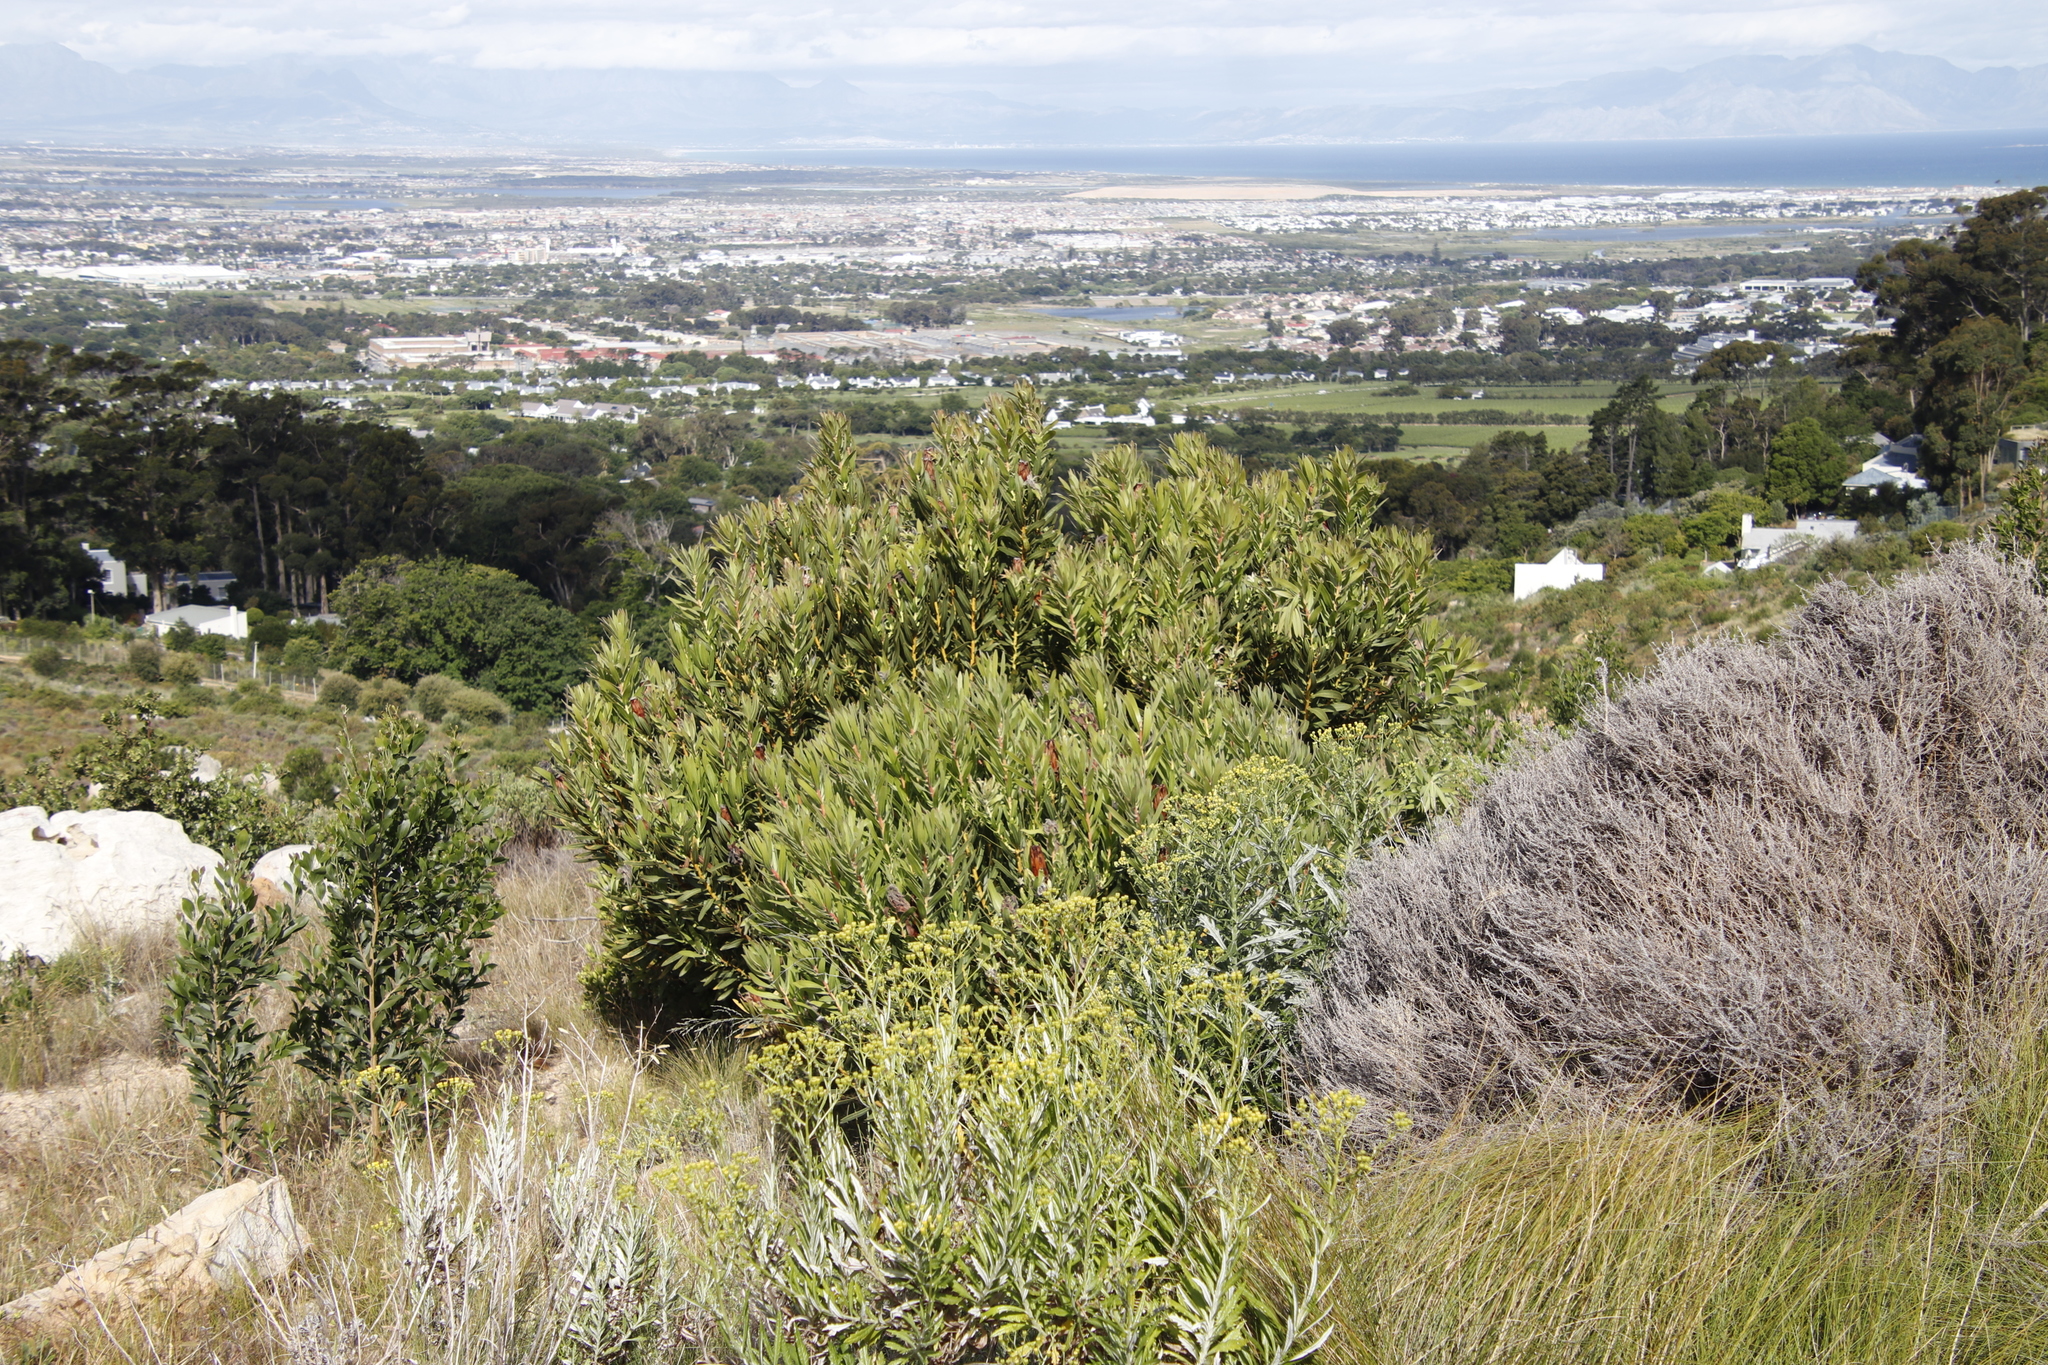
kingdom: Plantae
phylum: Tracheophyta
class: Magnoliopsida
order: Proteales
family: Proteaceae
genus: Protea
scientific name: Protea lepidocarpodendron
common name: Black-bearded protea
